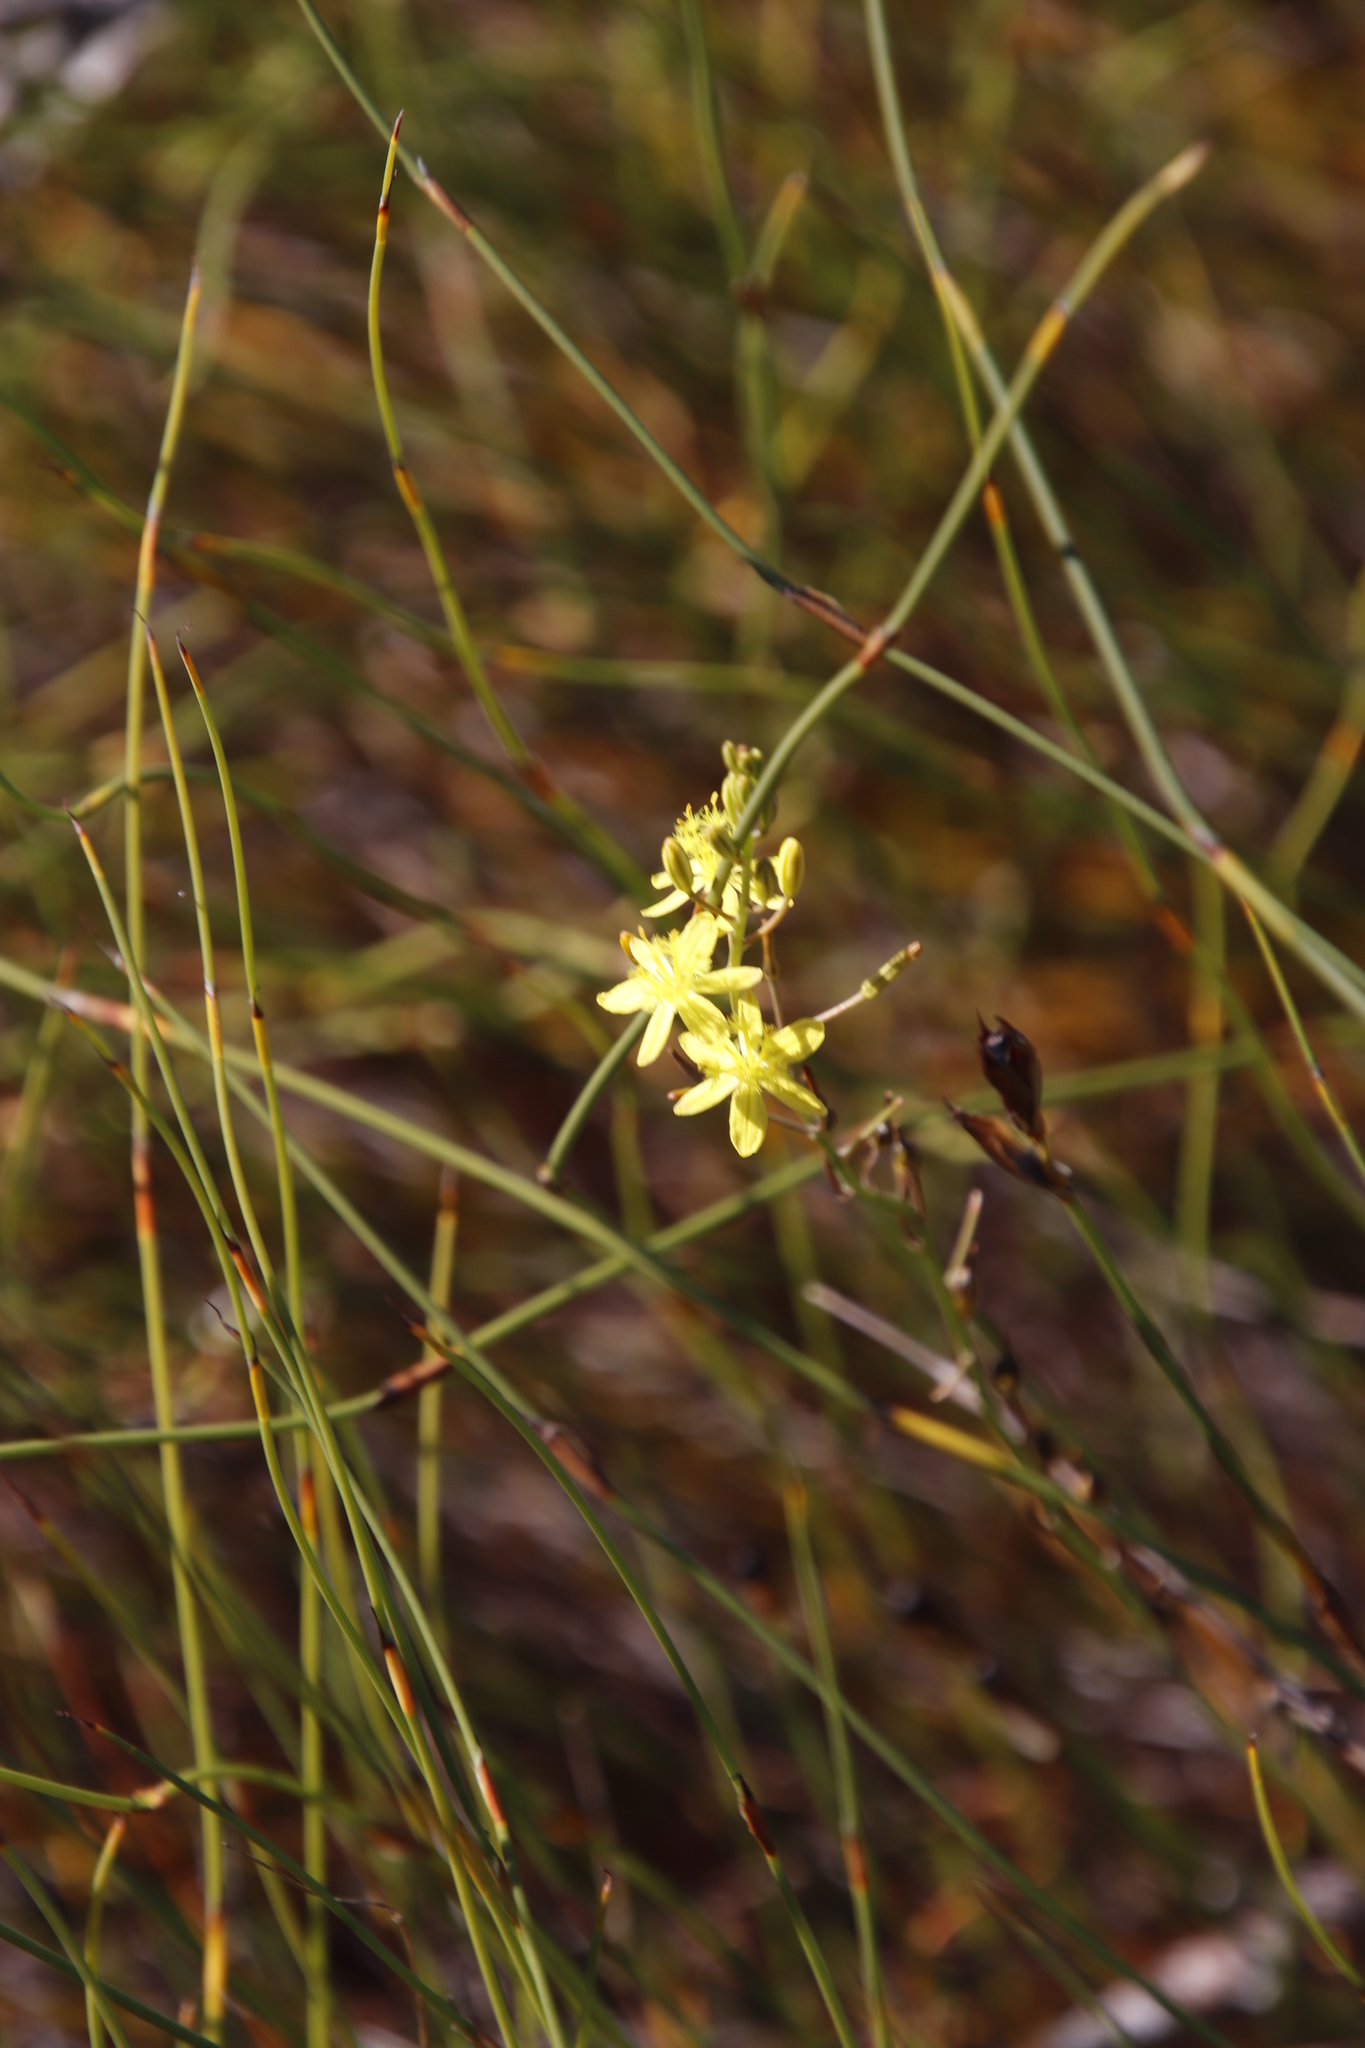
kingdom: Plantae
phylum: Tracheophyta
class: Liliopsida
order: Asparagales
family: Asphodelaceae
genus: Bulbine
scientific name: Bulbine favosa
